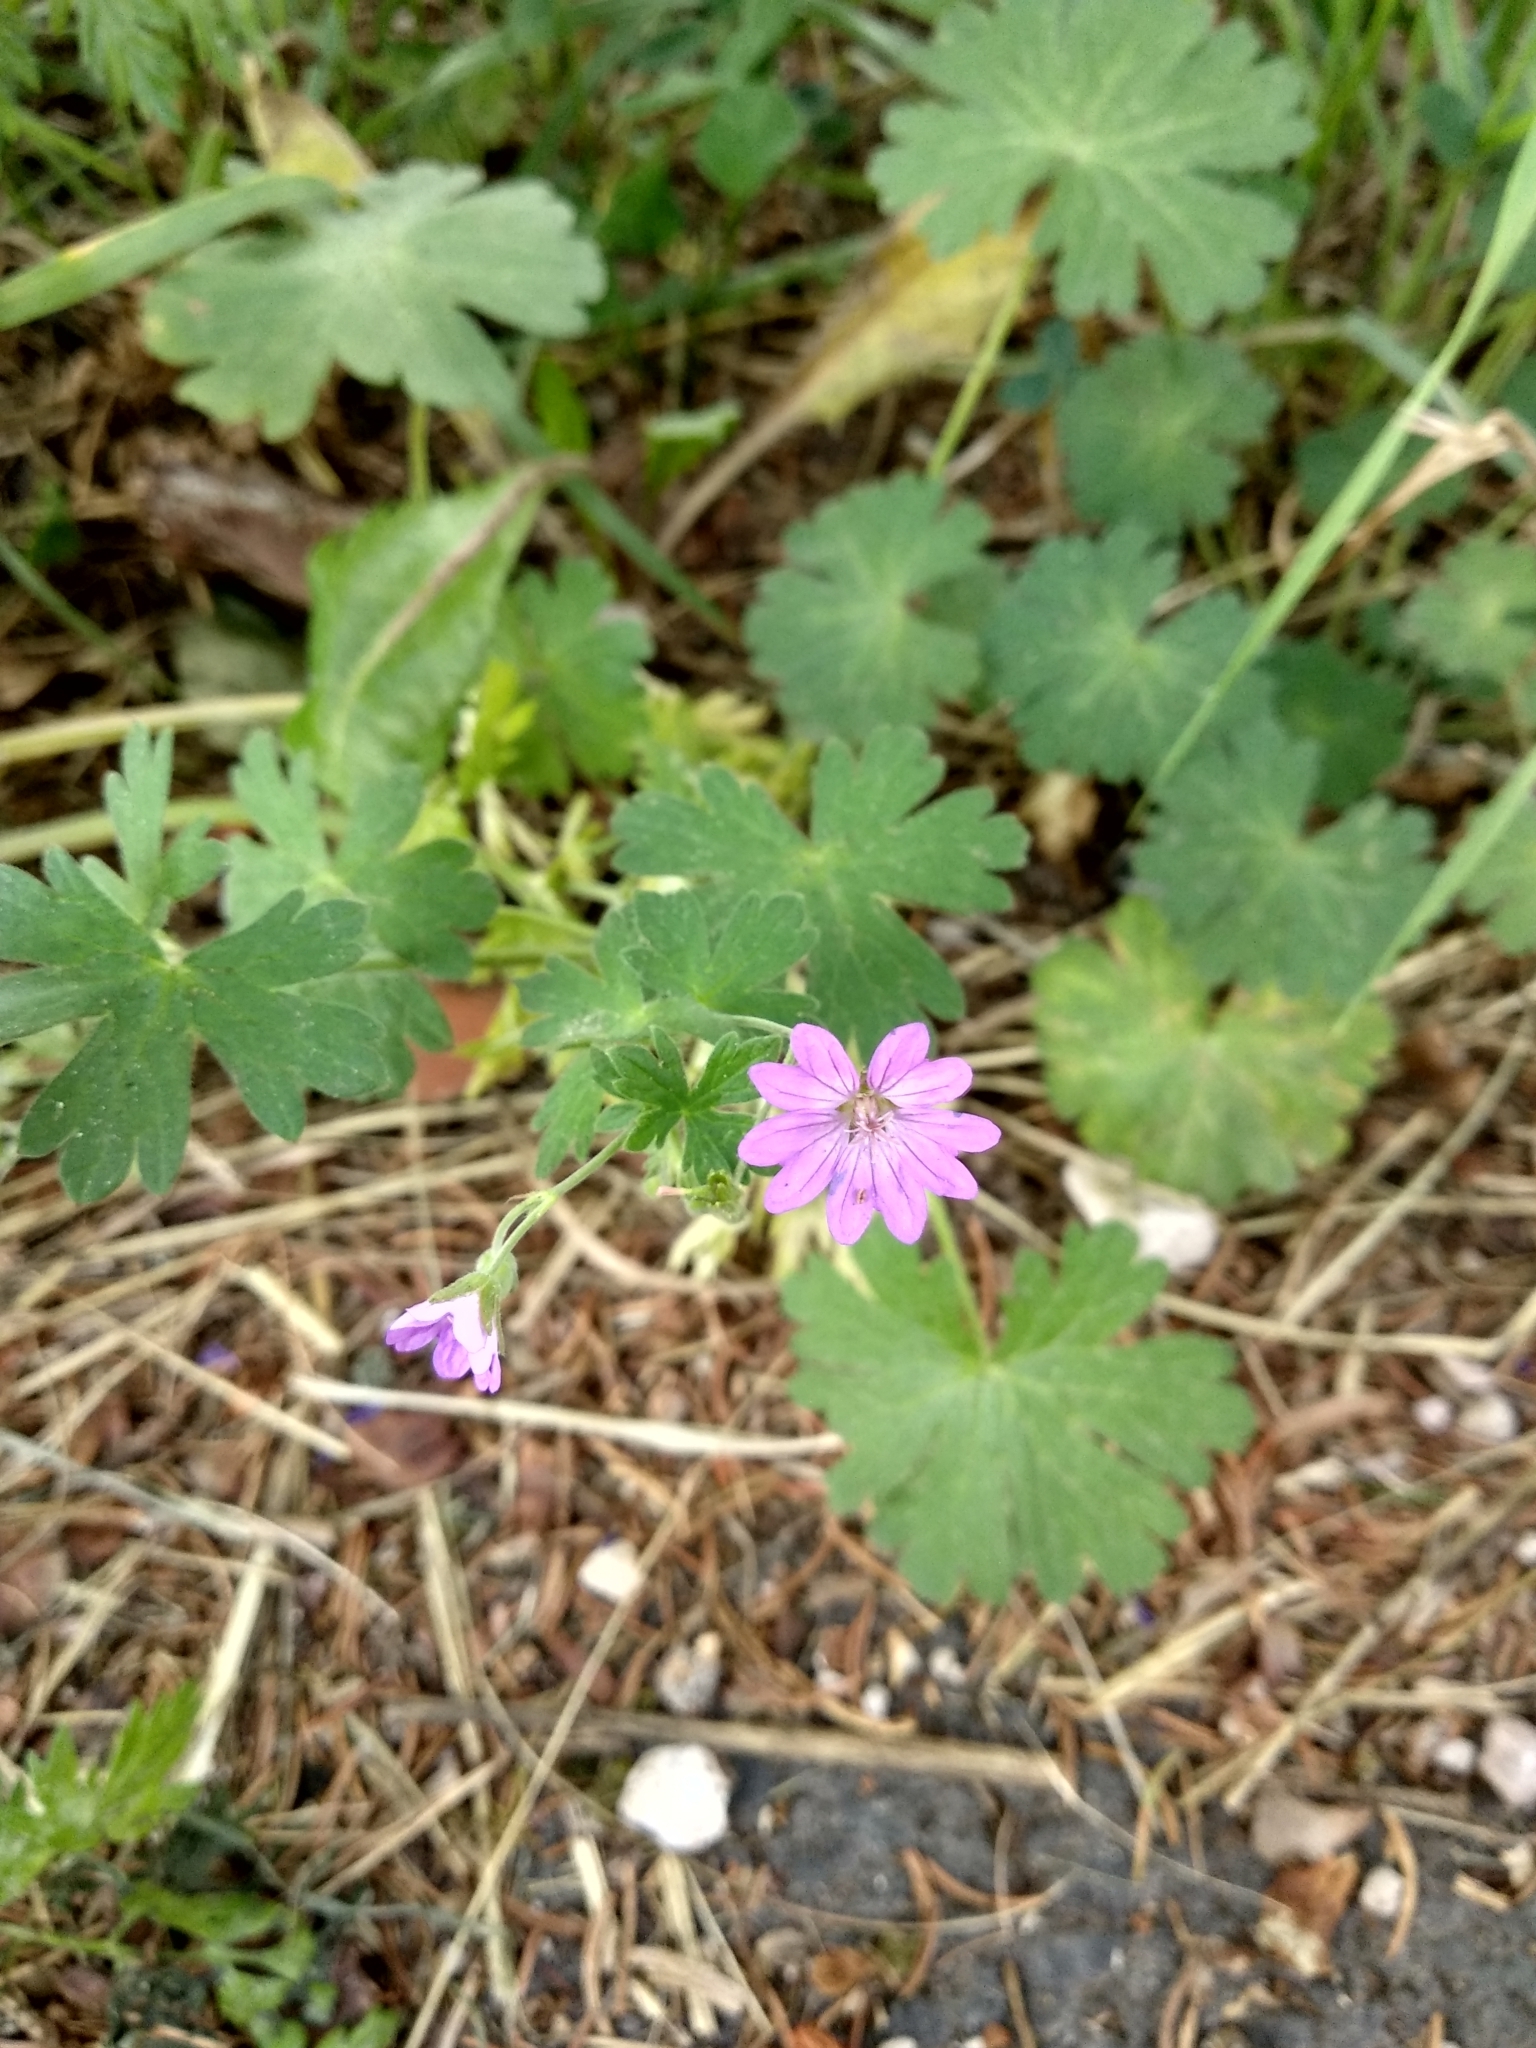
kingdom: Plantae
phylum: Tracheophyta
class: Magnoliopsida
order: Geraniales
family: Geraniaceae
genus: Geranium
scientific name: Geranium molle
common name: Dove's-foot crane's-bill
